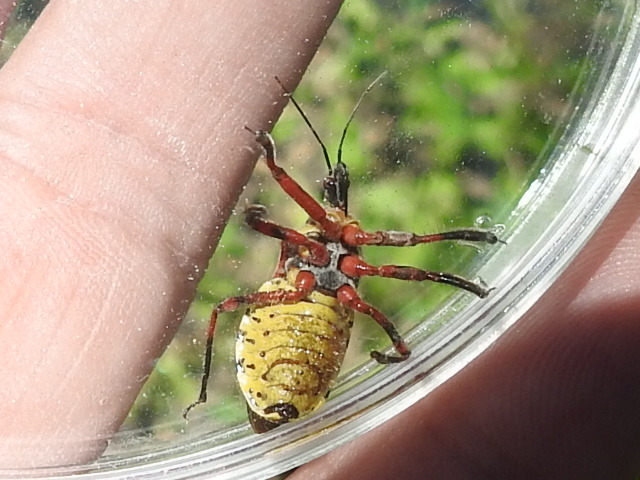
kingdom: Animalia
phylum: Arthropoda
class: Insecta
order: Hemiptera
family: Reduviidae
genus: Apiomerus
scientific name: Apiomerus flaviventris
